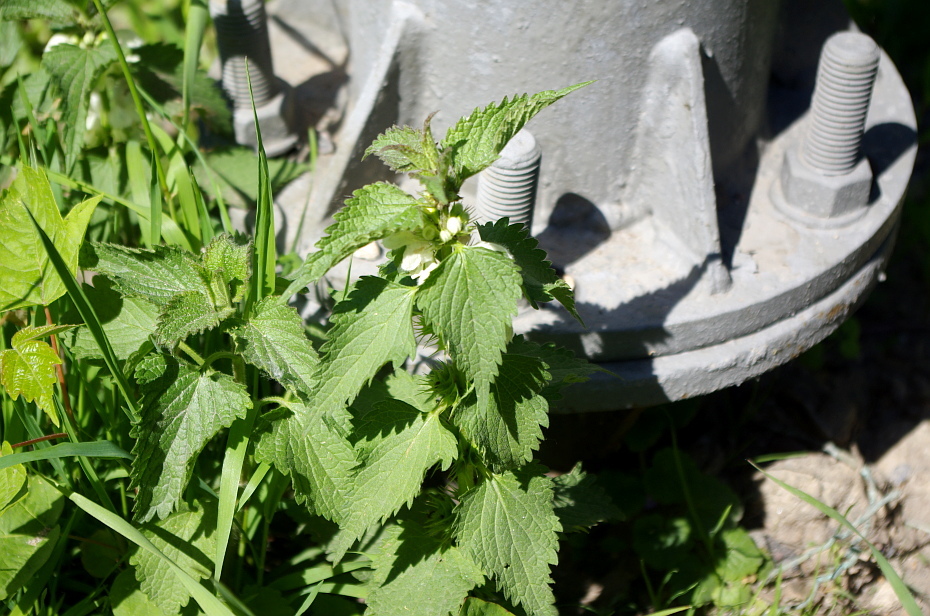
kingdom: Plantae
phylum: Tracheophyta
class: Magnoliopsida
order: Lamiales
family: Lamiaceae
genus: Lamium
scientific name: Lamium album
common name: White dead-nettle
